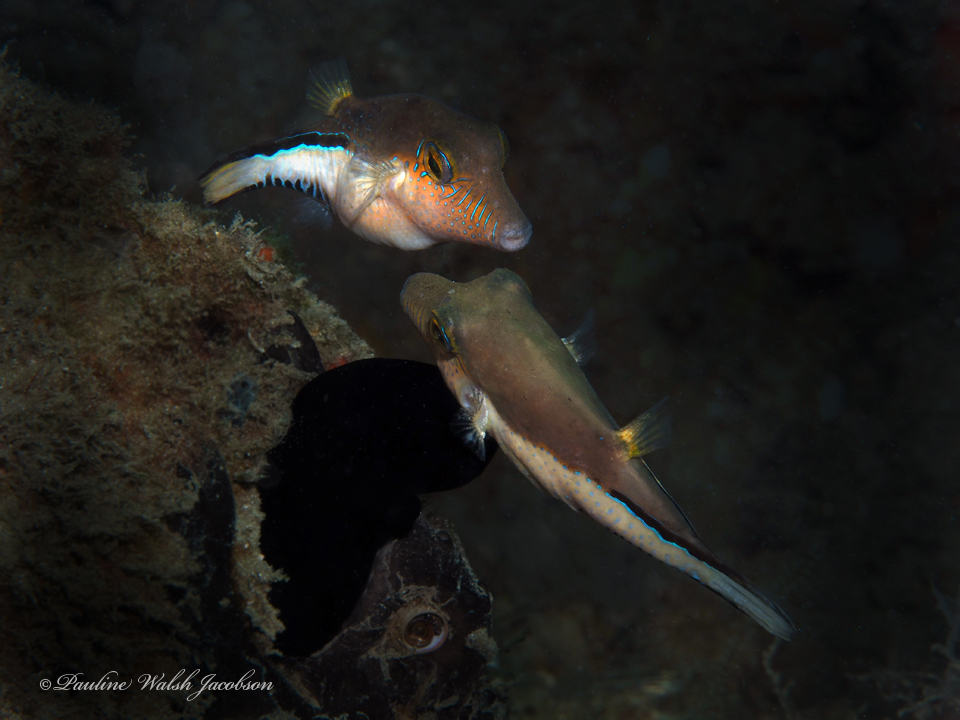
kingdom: Animalia
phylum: Chordata
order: Tetraodontiformes
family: Tetraodontidae
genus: Canthigaster
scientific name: Canthigaster rostrata
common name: Caribbean sharpnose-puffer
